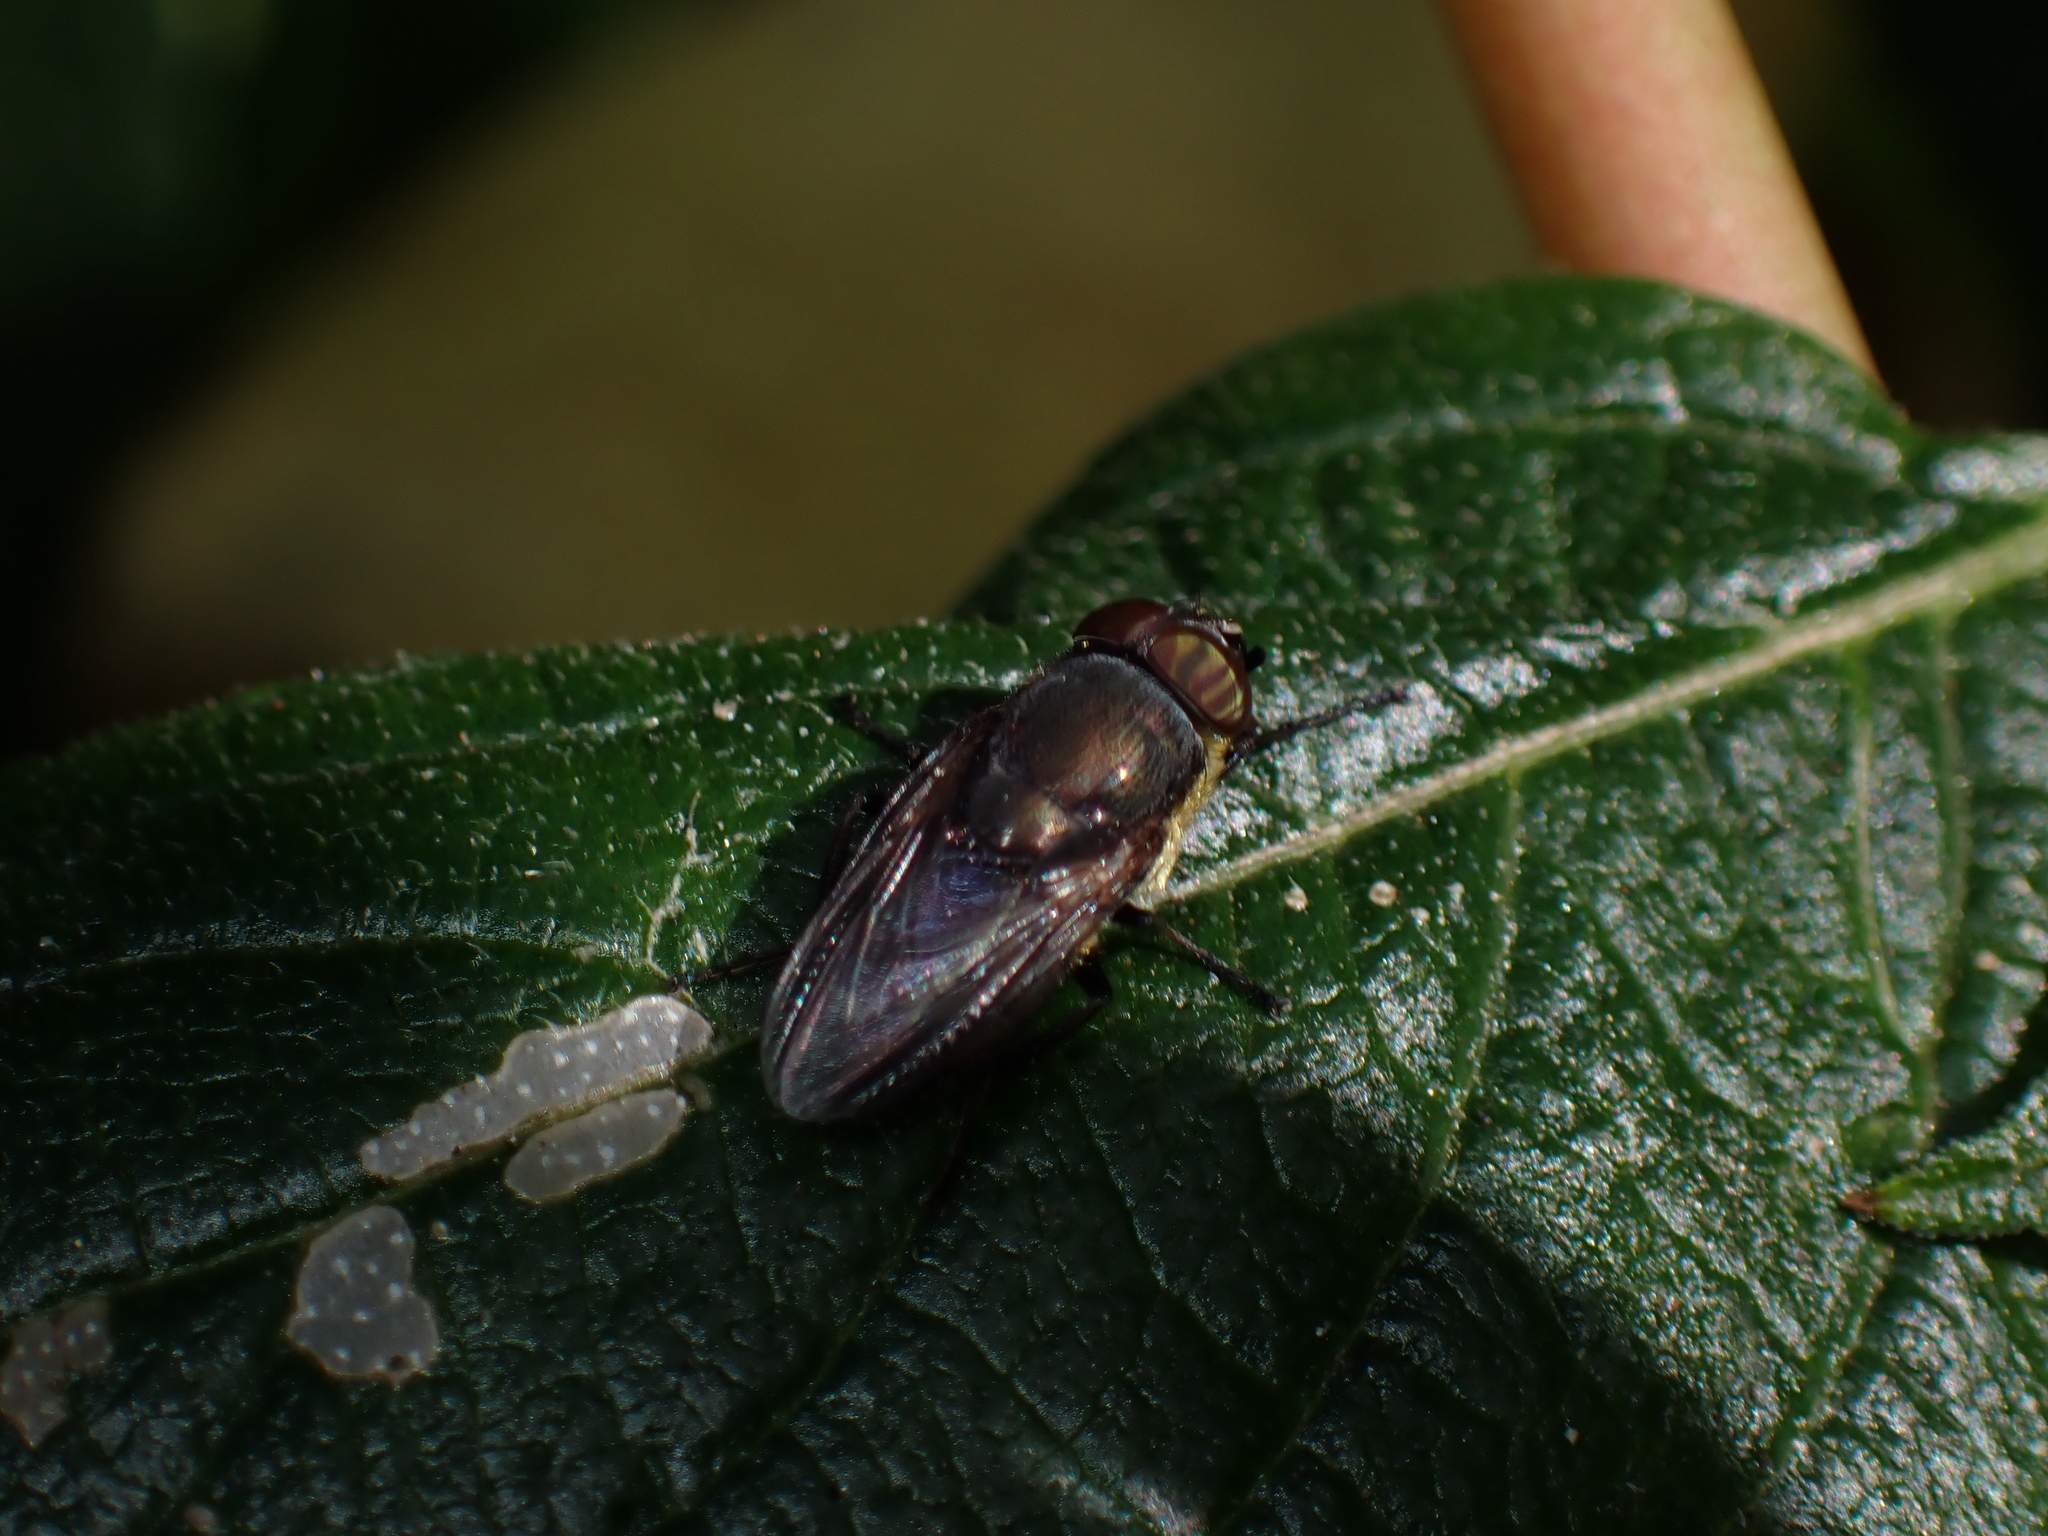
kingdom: Animalia
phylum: Arthropoda
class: Insecta
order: Diptera
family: Calliphoridae
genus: Idiellopsis
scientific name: Idiellopsis xanthogaster
